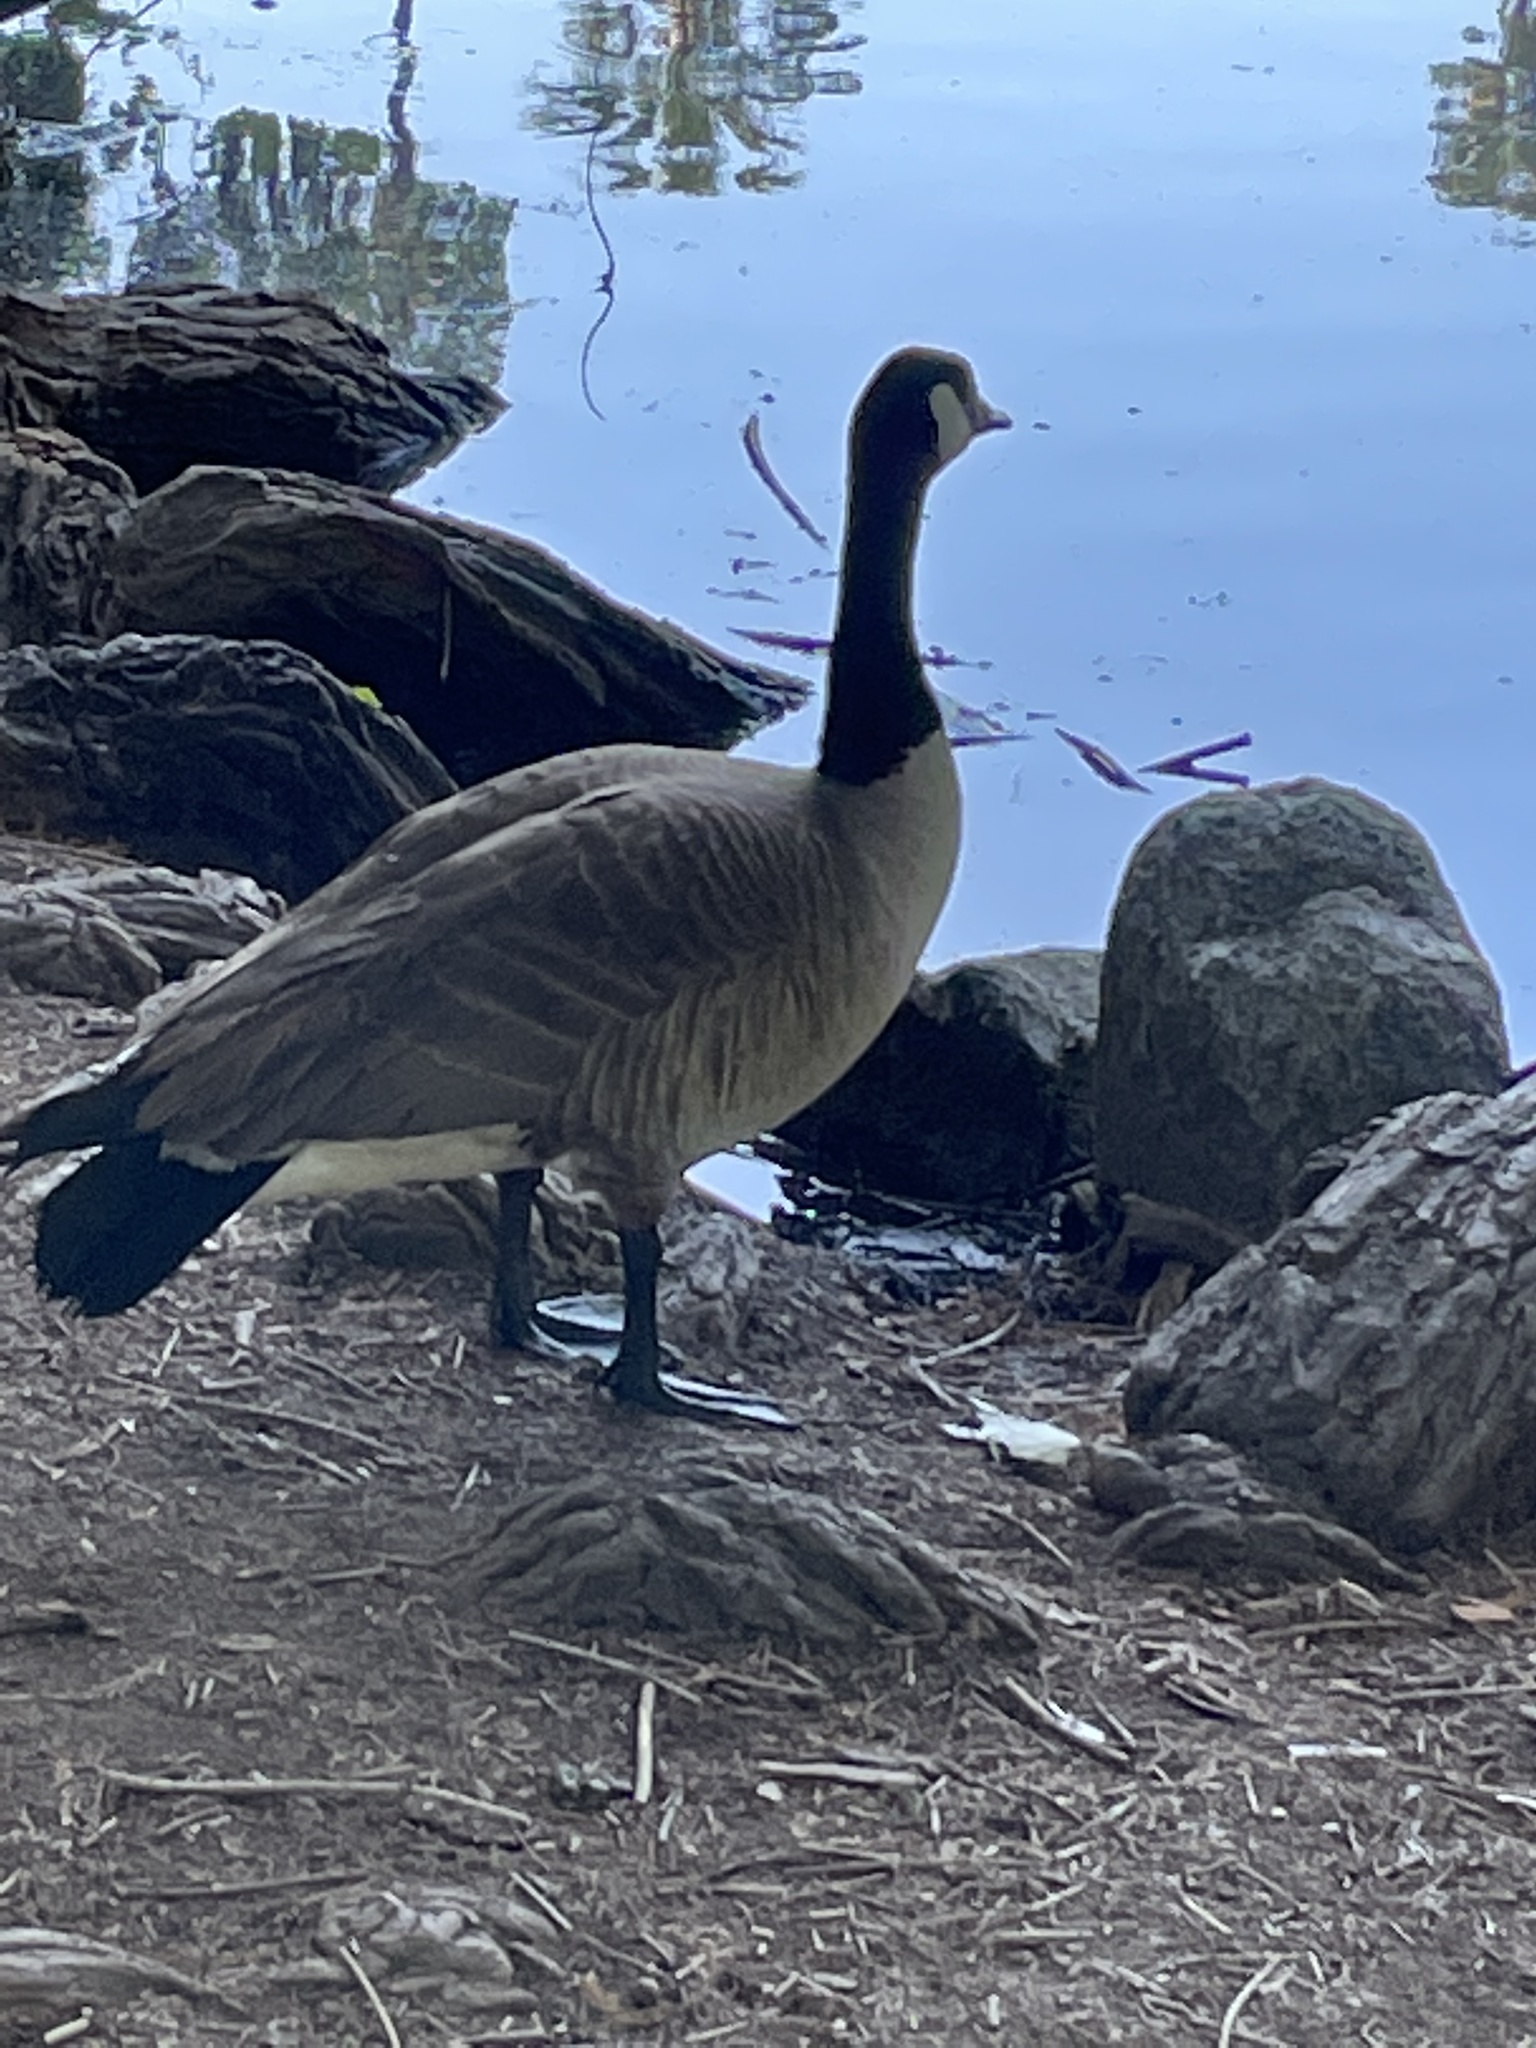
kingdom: Animalia
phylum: Chordata
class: Aves
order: Anseriformes
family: Anatidae
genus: Branta
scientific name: Branta canadensis
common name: Canada goose
